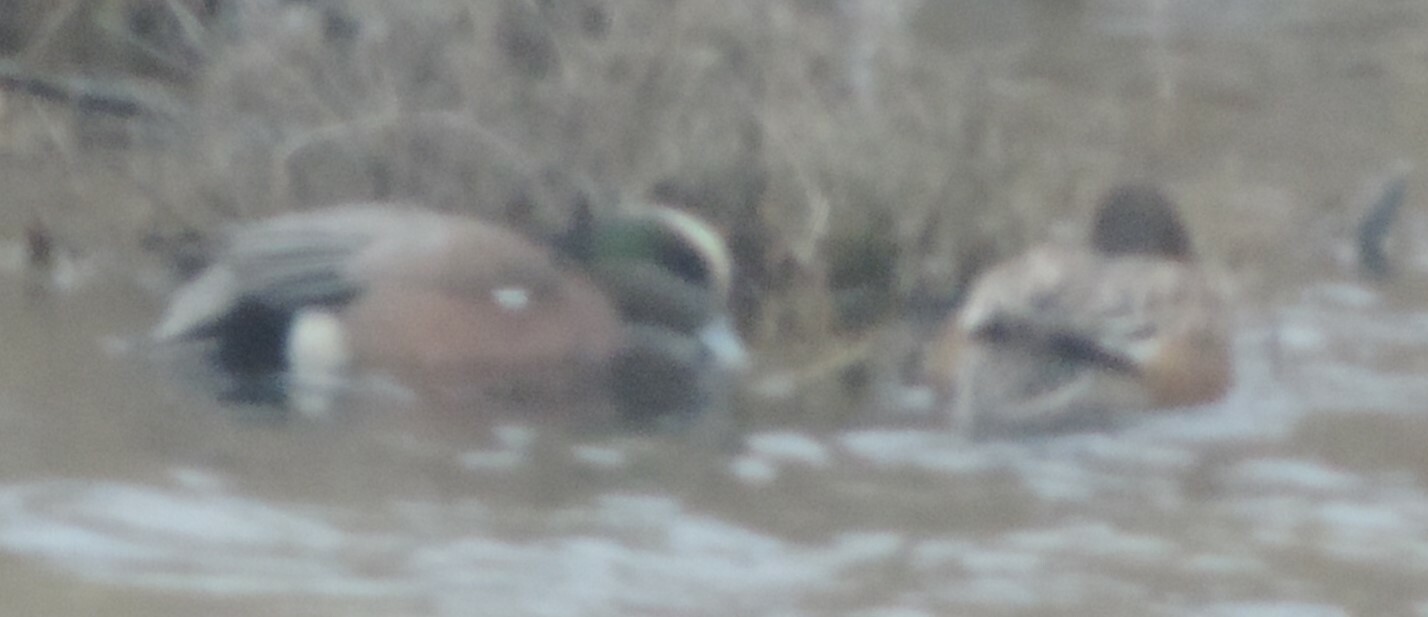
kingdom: Animalia
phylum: Chordata
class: Aves
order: Anseriformes
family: Anatidae
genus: Mareca
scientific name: Mareca americana
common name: American wigeon
